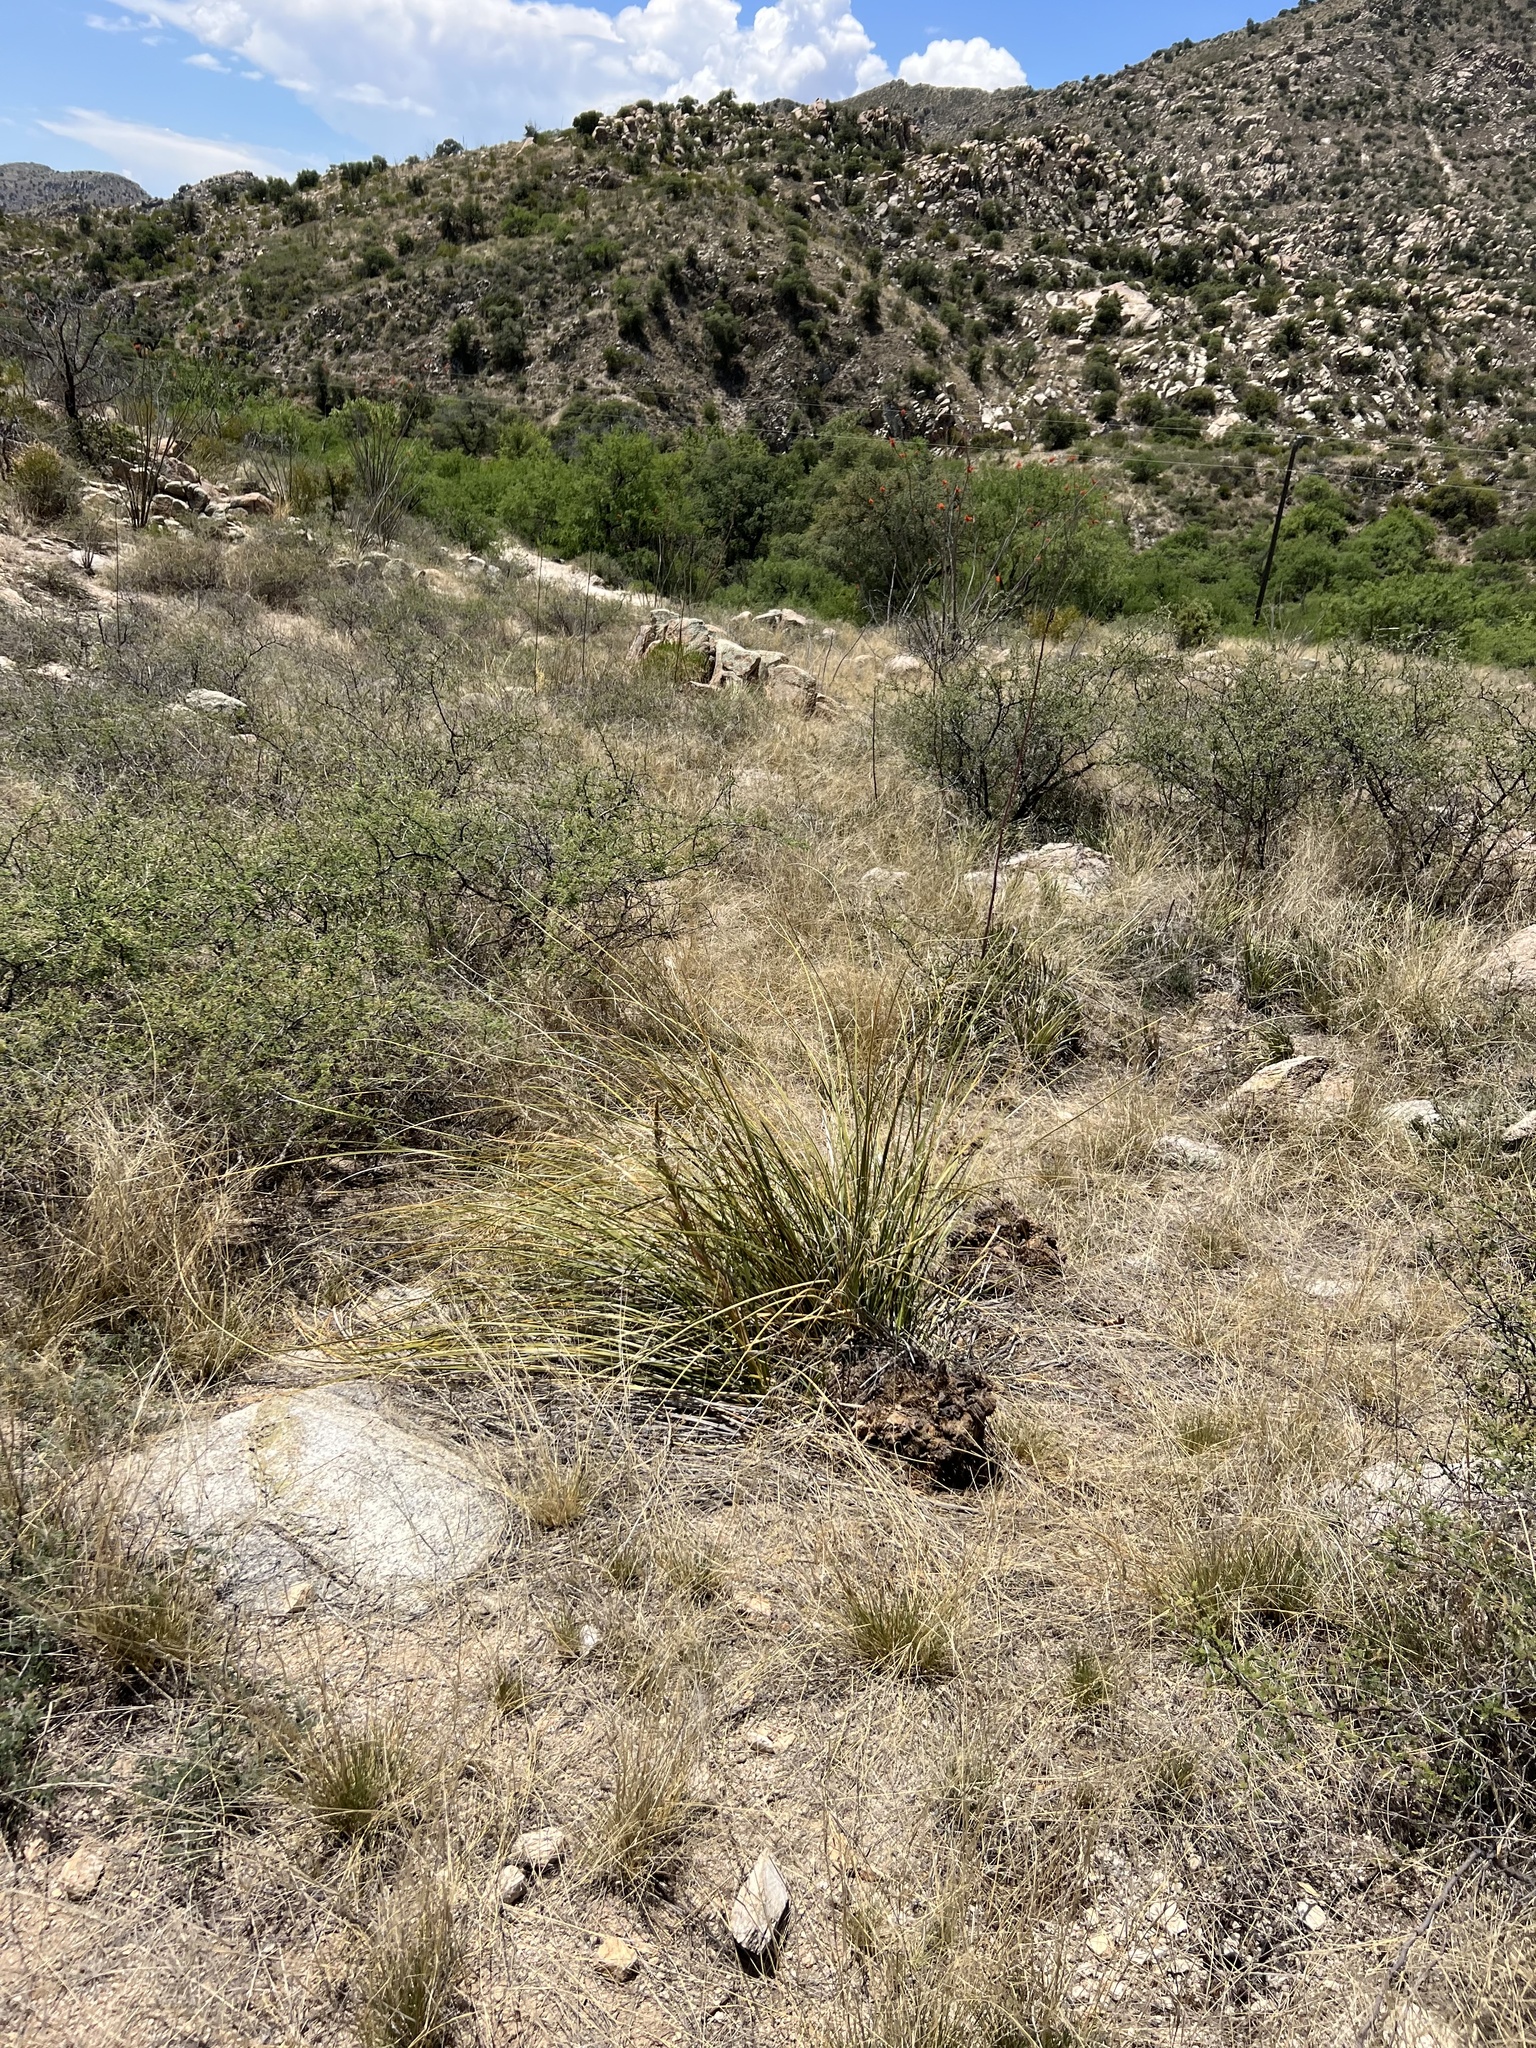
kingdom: Plantae
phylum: Tracheophyta
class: Liliopsida
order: Asparagales
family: Asparagaceae
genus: Nolina
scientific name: Nolina microcarpa
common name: Bear-grass
